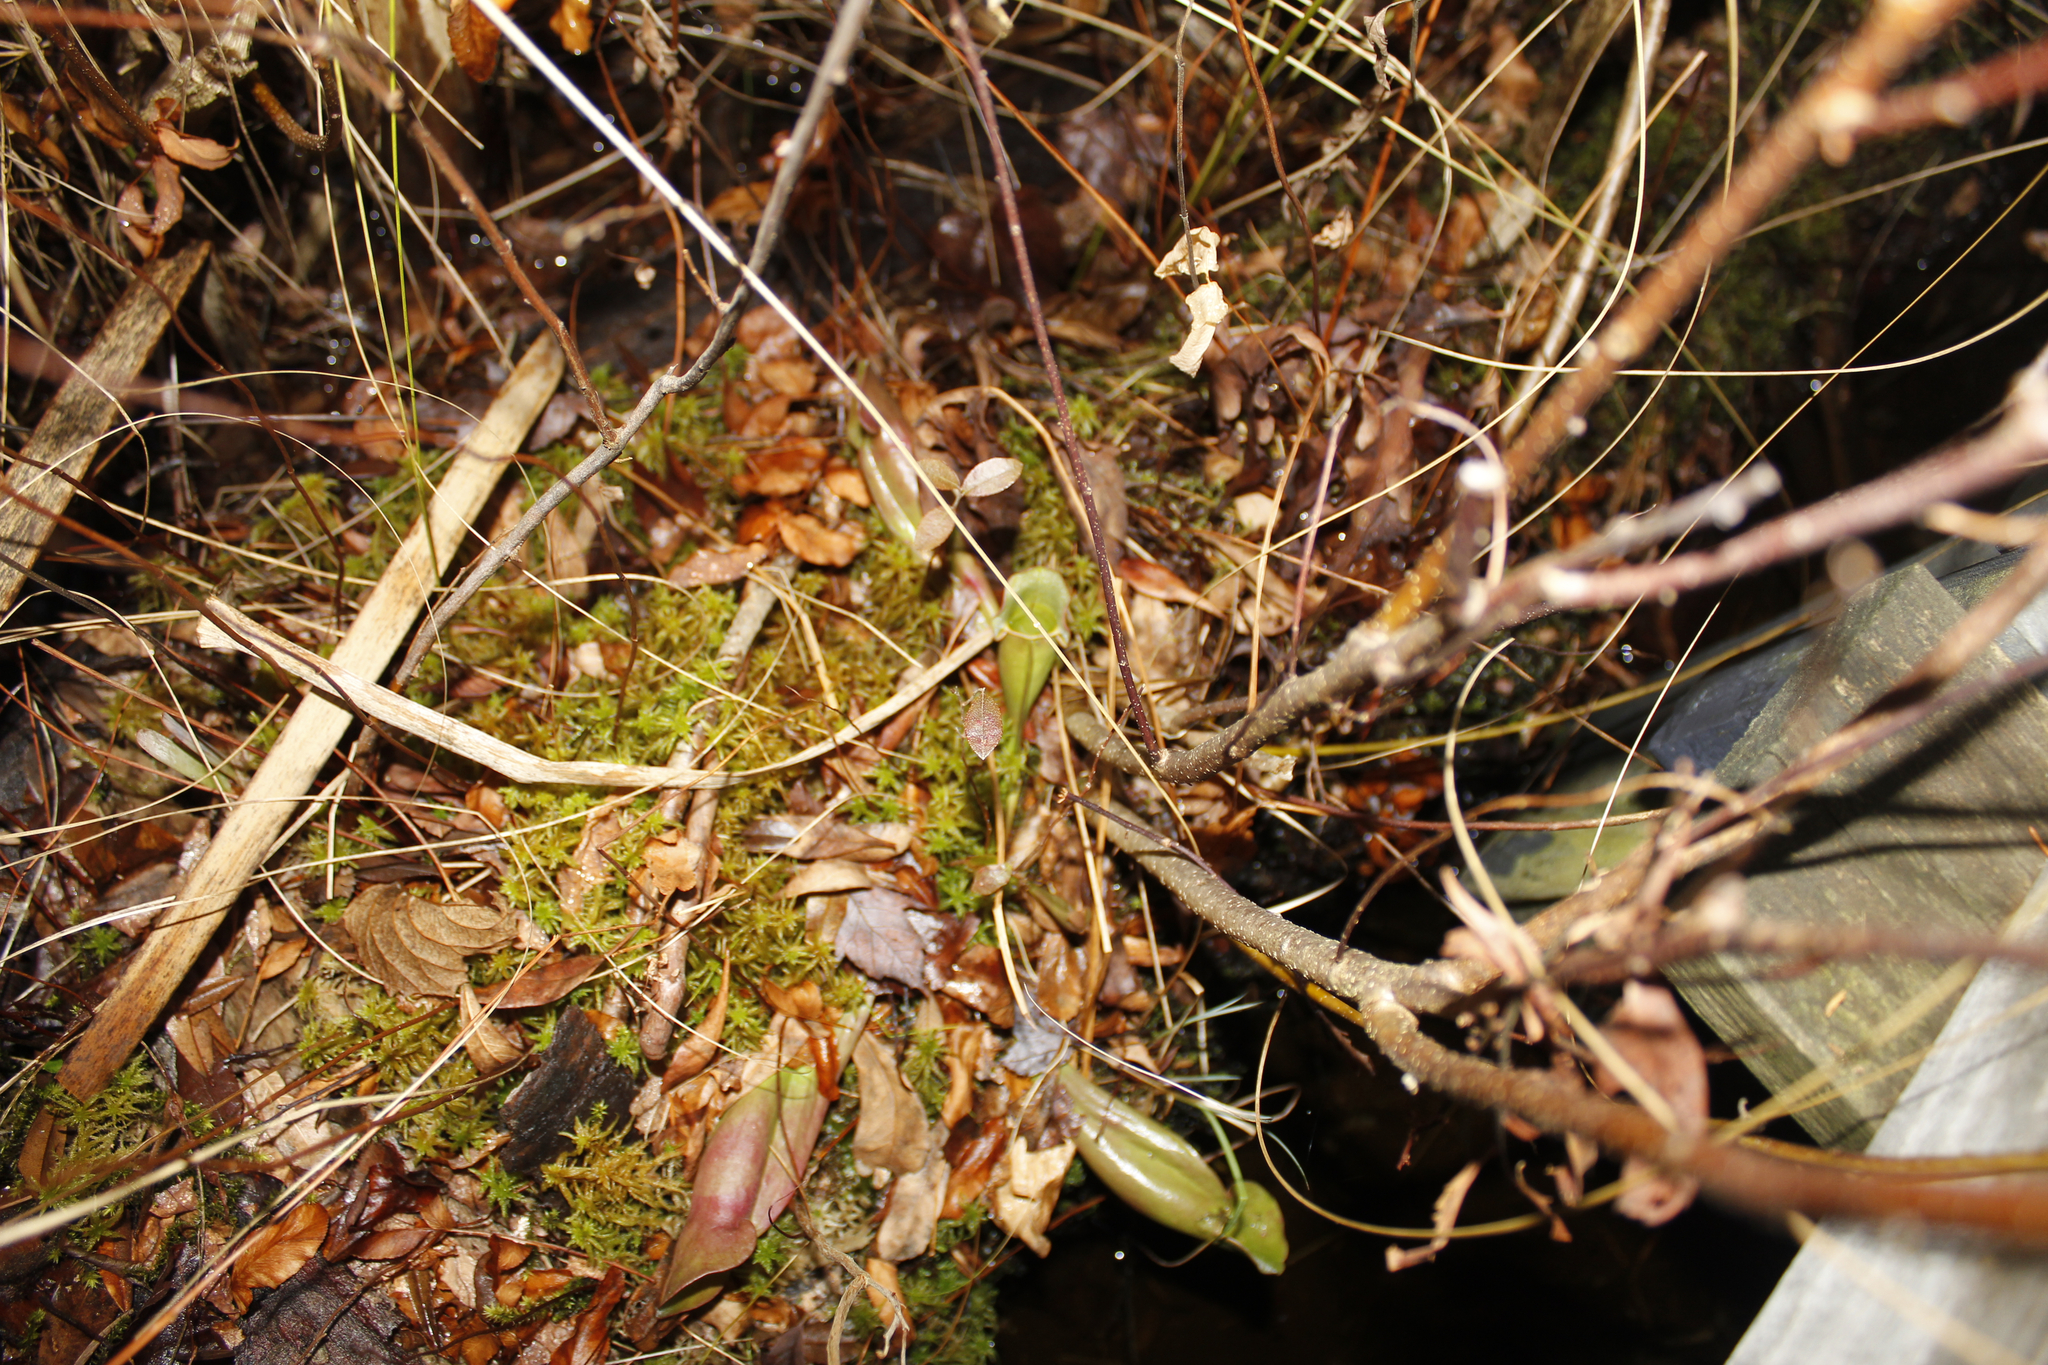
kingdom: Plantae
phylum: Tracheophyta
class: Magnoliopsida
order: Ericales
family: Sarraceniaceae
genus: Sarracenia
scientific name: Sarracenia purpurea
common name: Pitcherplant
